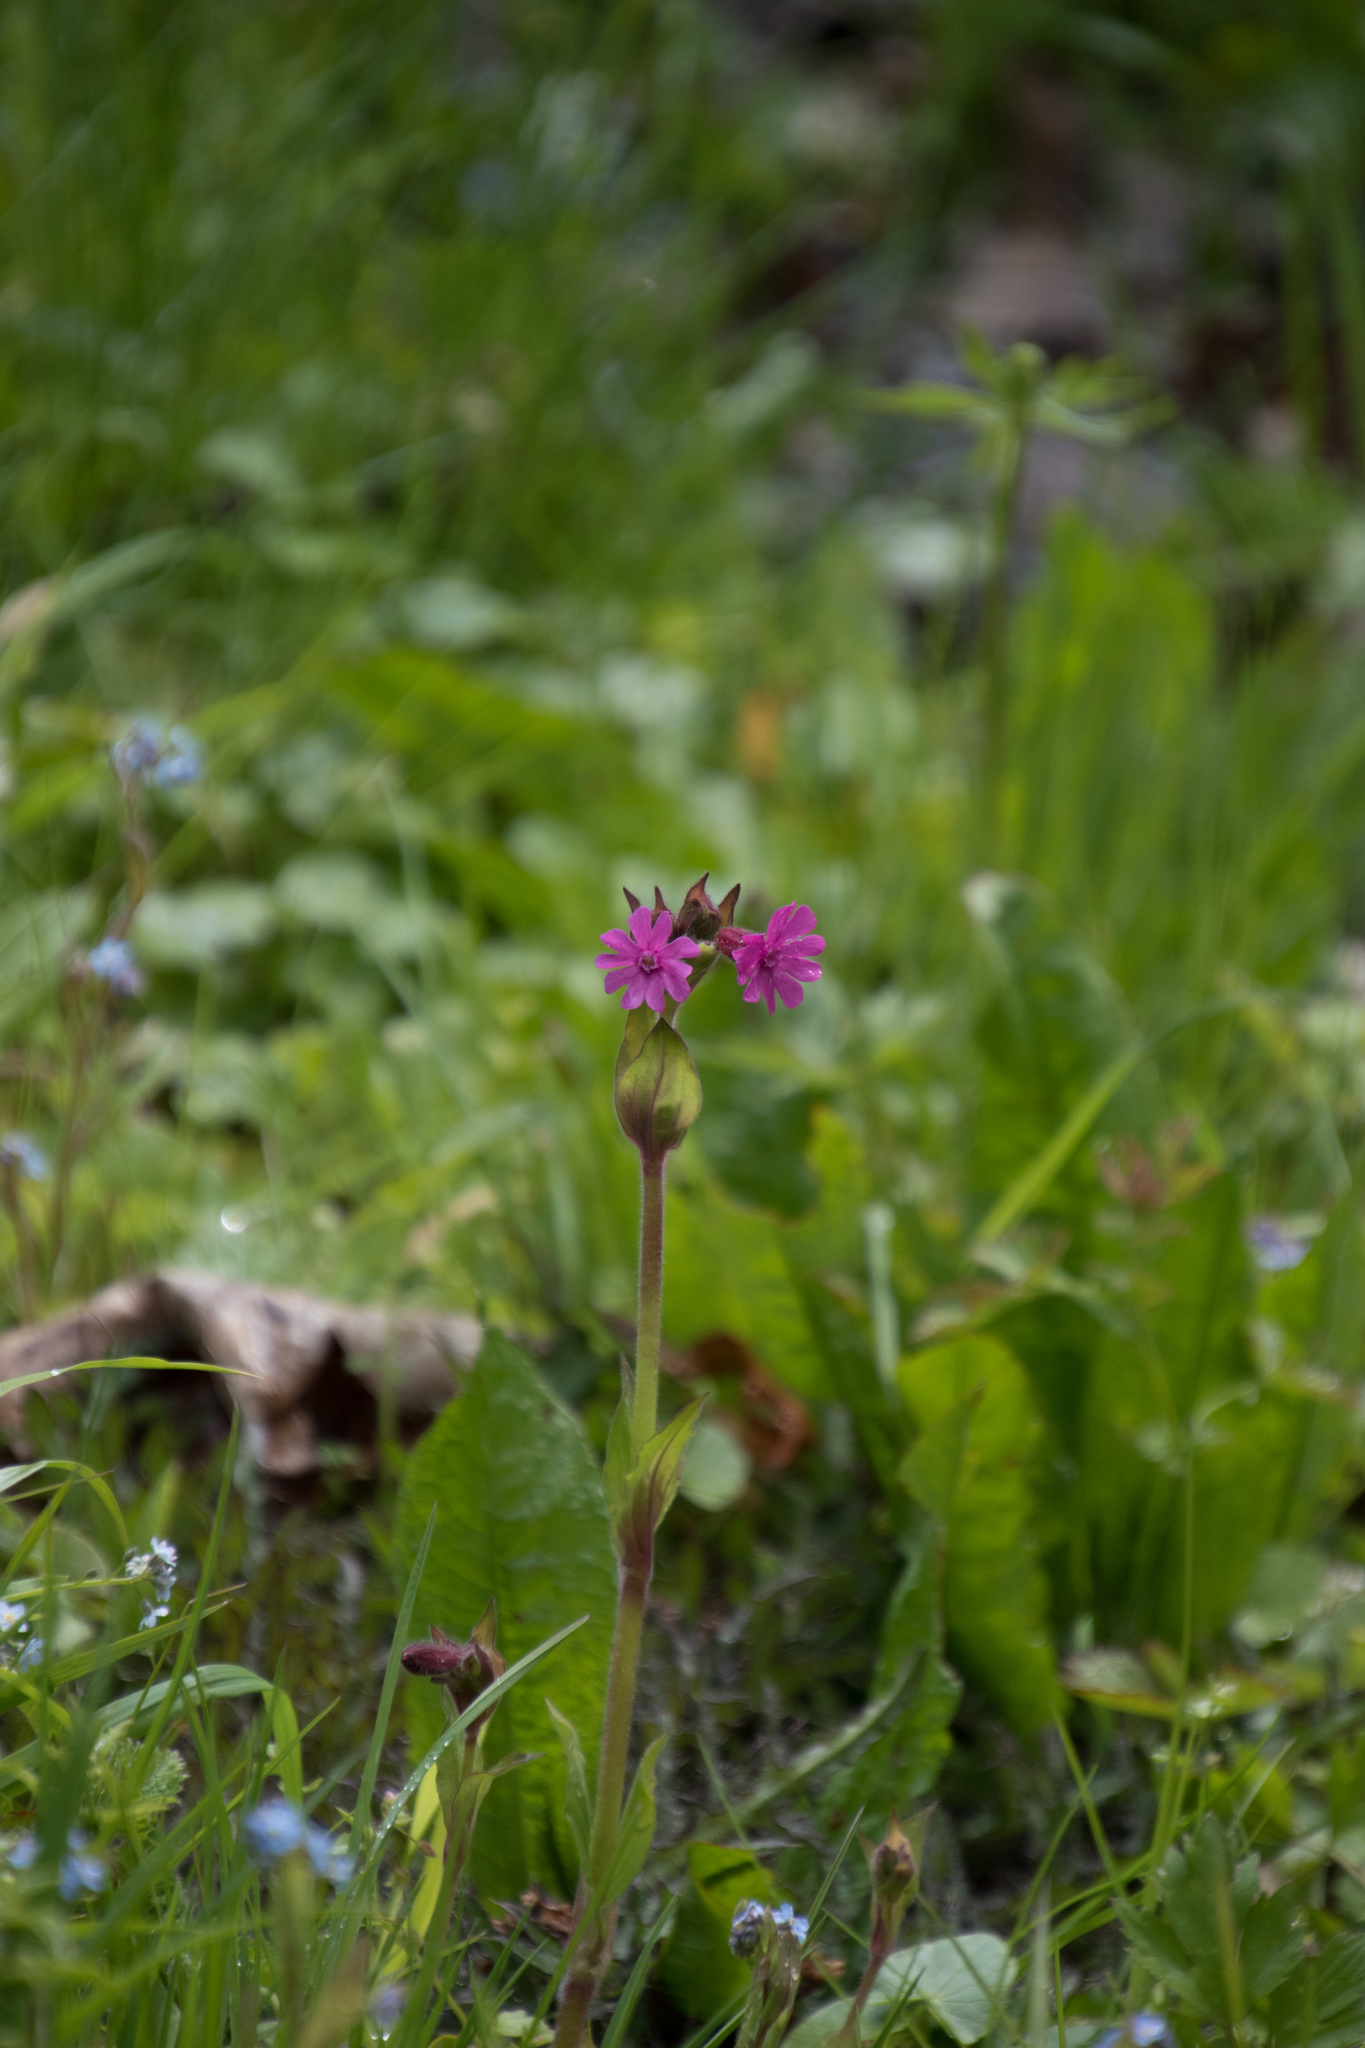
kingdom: Plantae
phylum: Tracheophyta
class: Magnoliopsida
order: Caryophyllales
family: Caryophyllaceae
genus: Silene
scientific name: Silene dioica
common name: Red campion
